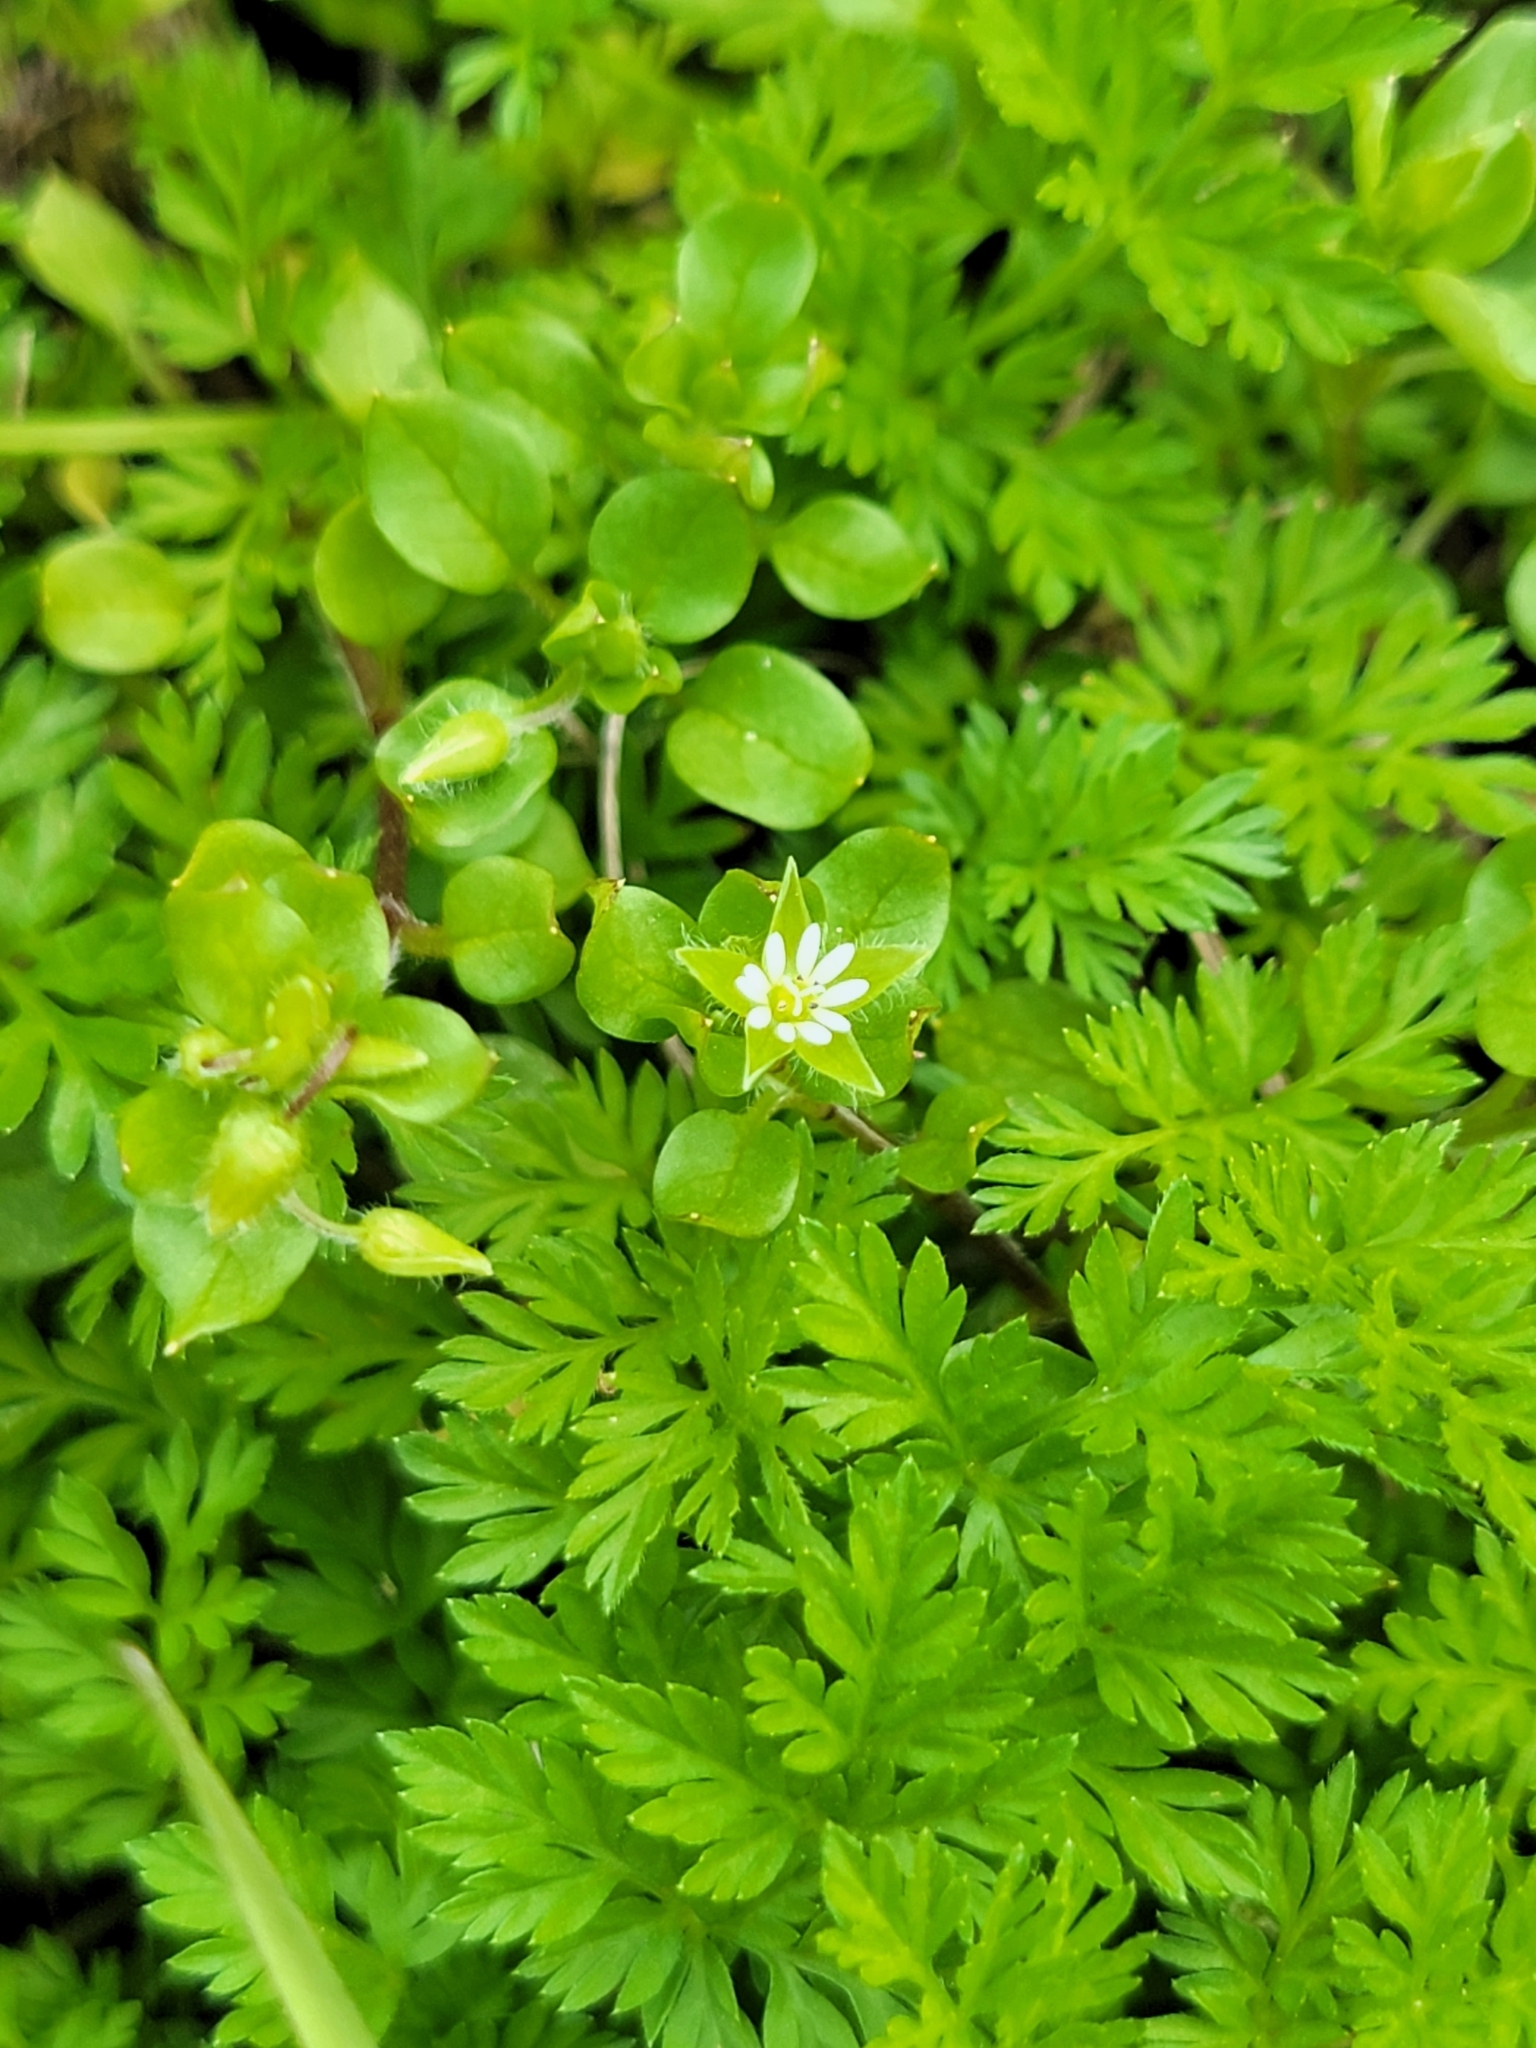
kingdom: Plantae
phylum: Tracheophyta
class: Magnoliopsida
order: Caryophyllales
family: Caryophyllaceae
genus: Stellaria
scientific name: Stellaria media
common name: Common chickweed
